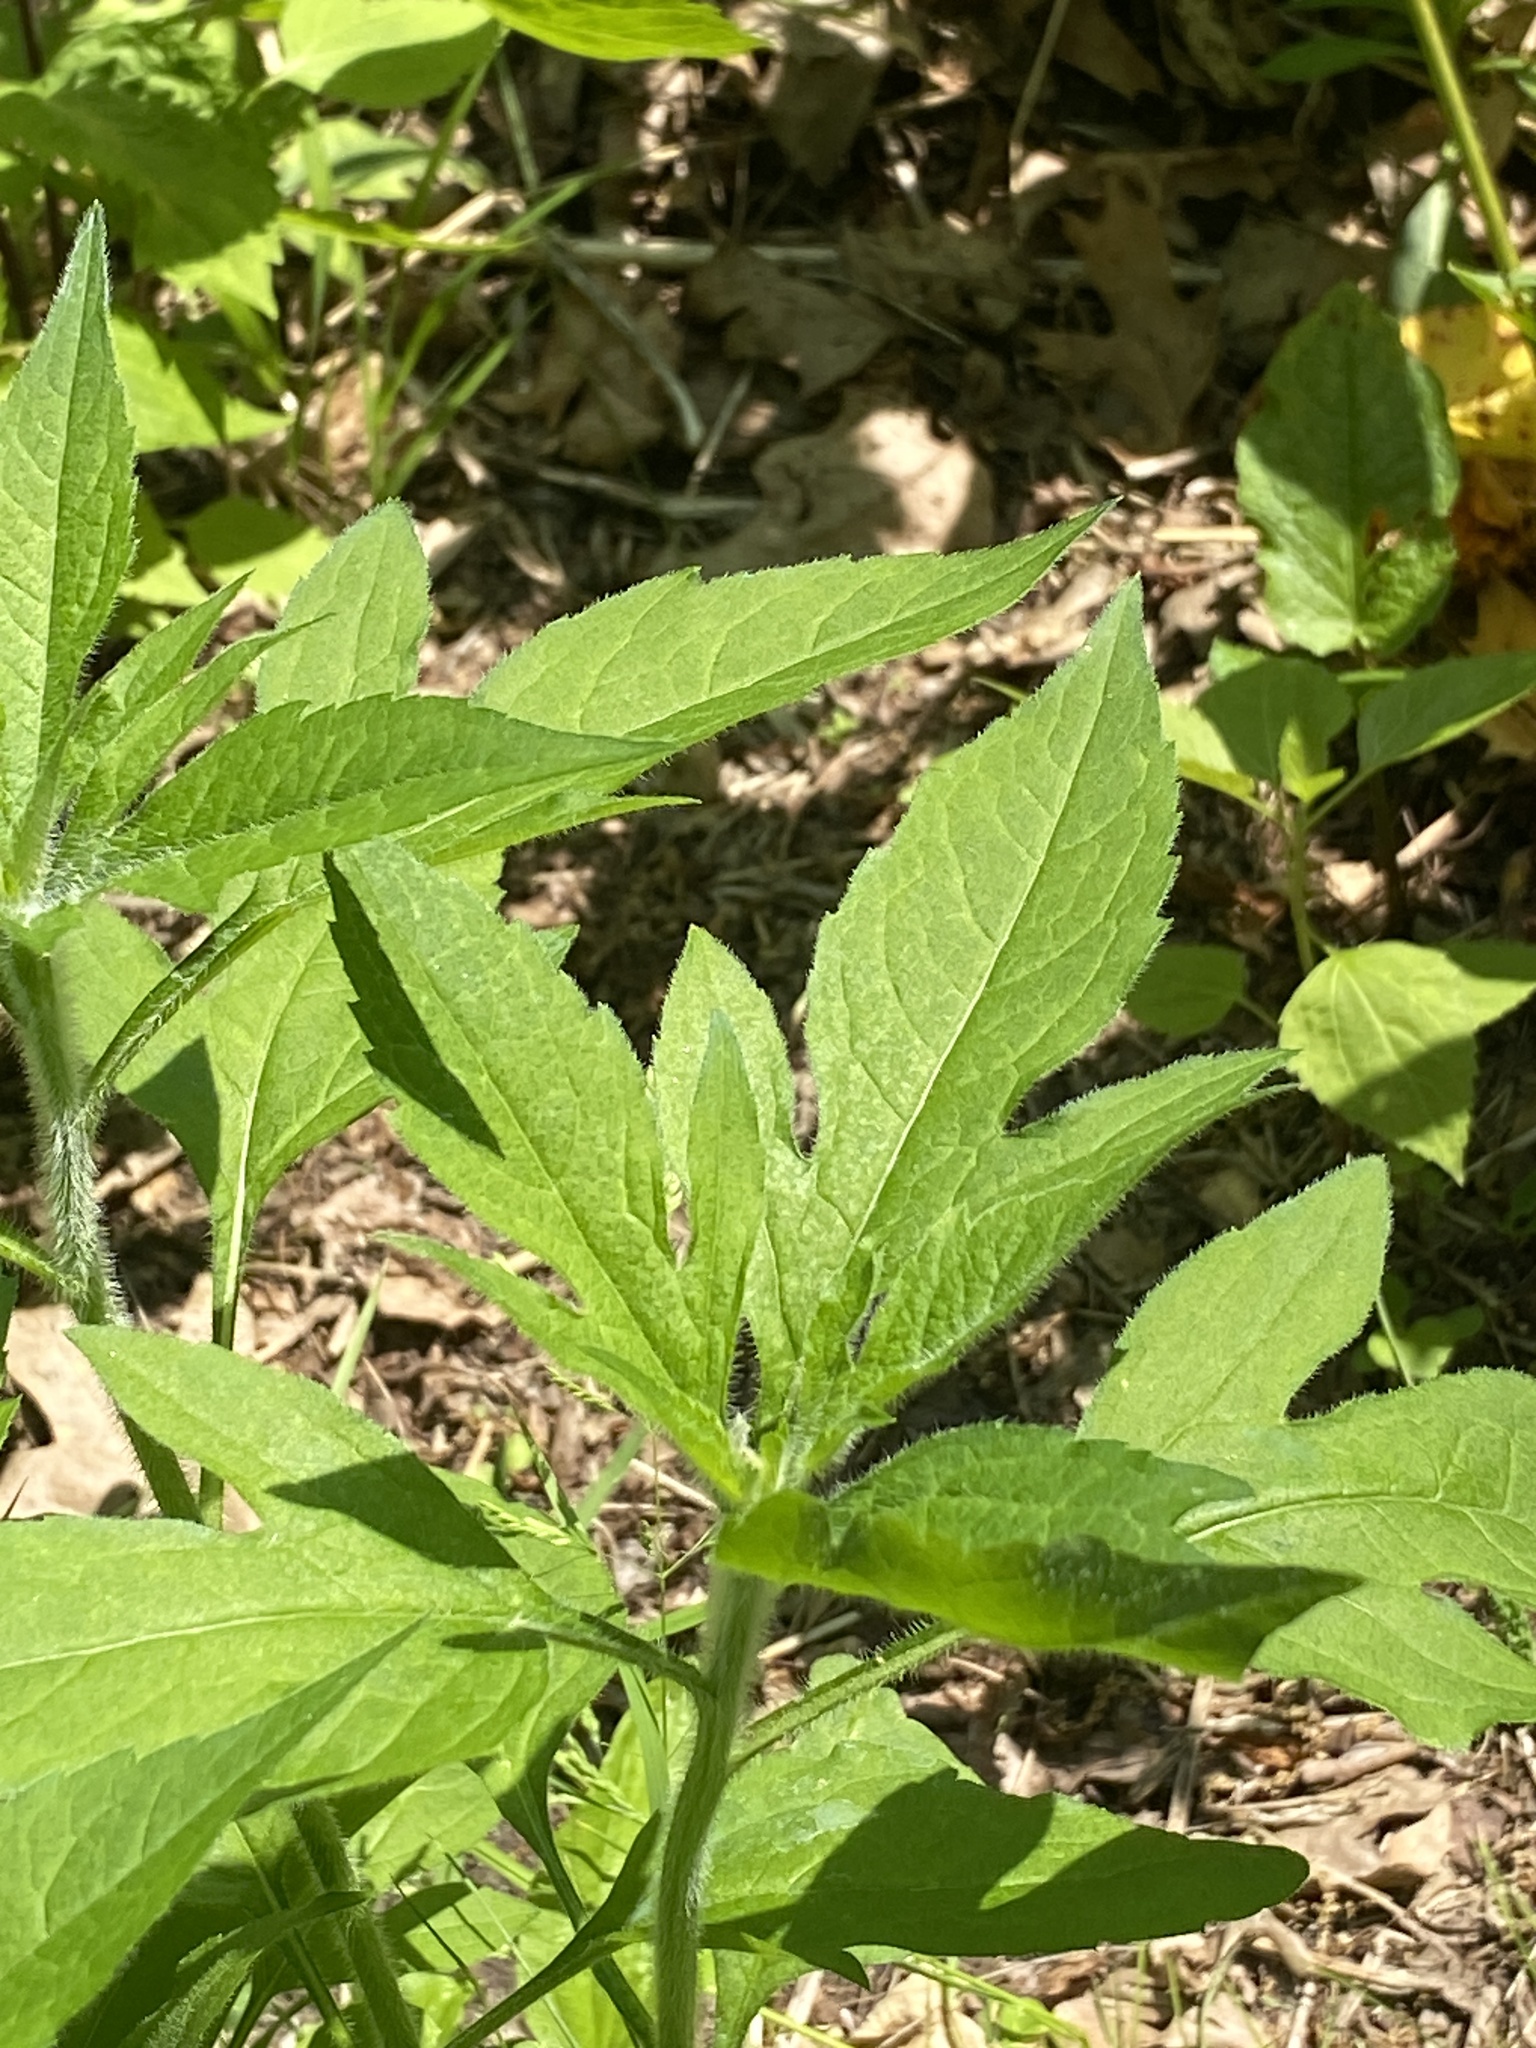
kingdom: Plantae
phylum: Tracheophyta
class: Magnoliopsida
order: Asterales
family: Asteraceae
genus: Ambrosia
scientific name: Ambrosia trifida
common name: Giant ragweed
